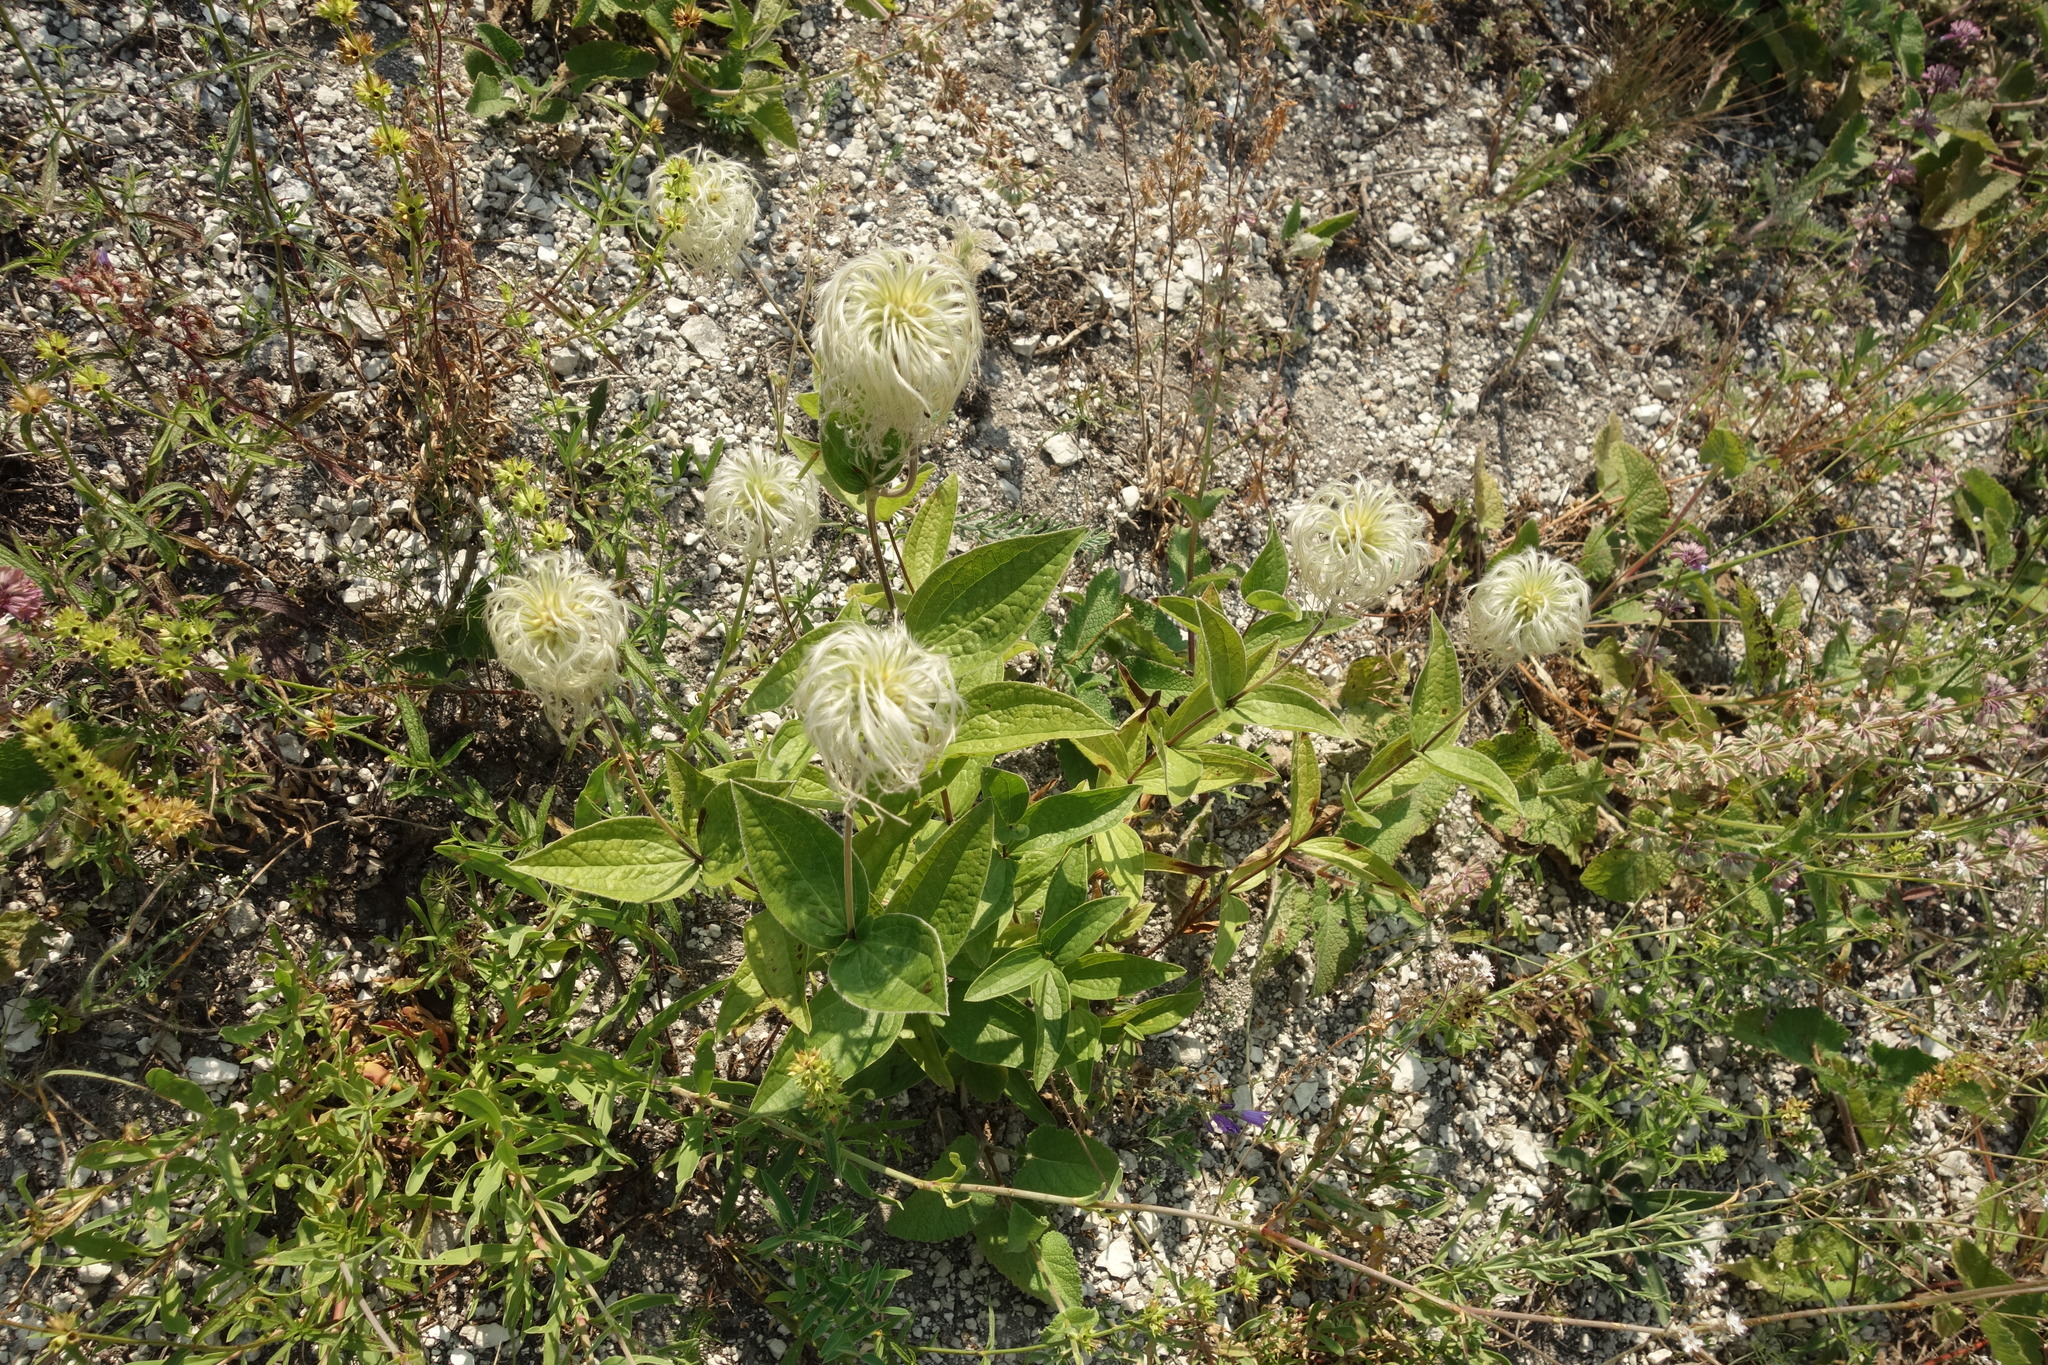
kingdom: Plantae
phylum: Tracheophyta
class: Magnoliopsida
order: Ranunculales
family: Ranunculaceae
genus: Clematis
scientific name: Clematis integrifolia
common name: Solitary clematis
